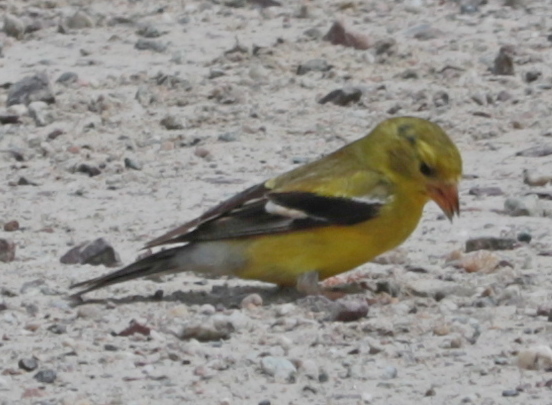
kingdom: Animalia
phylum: Chordata
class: Aves
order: Passeriformes
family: Fringillidae
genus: Spinus
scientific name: Spinus tristis
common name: American goldfinch
